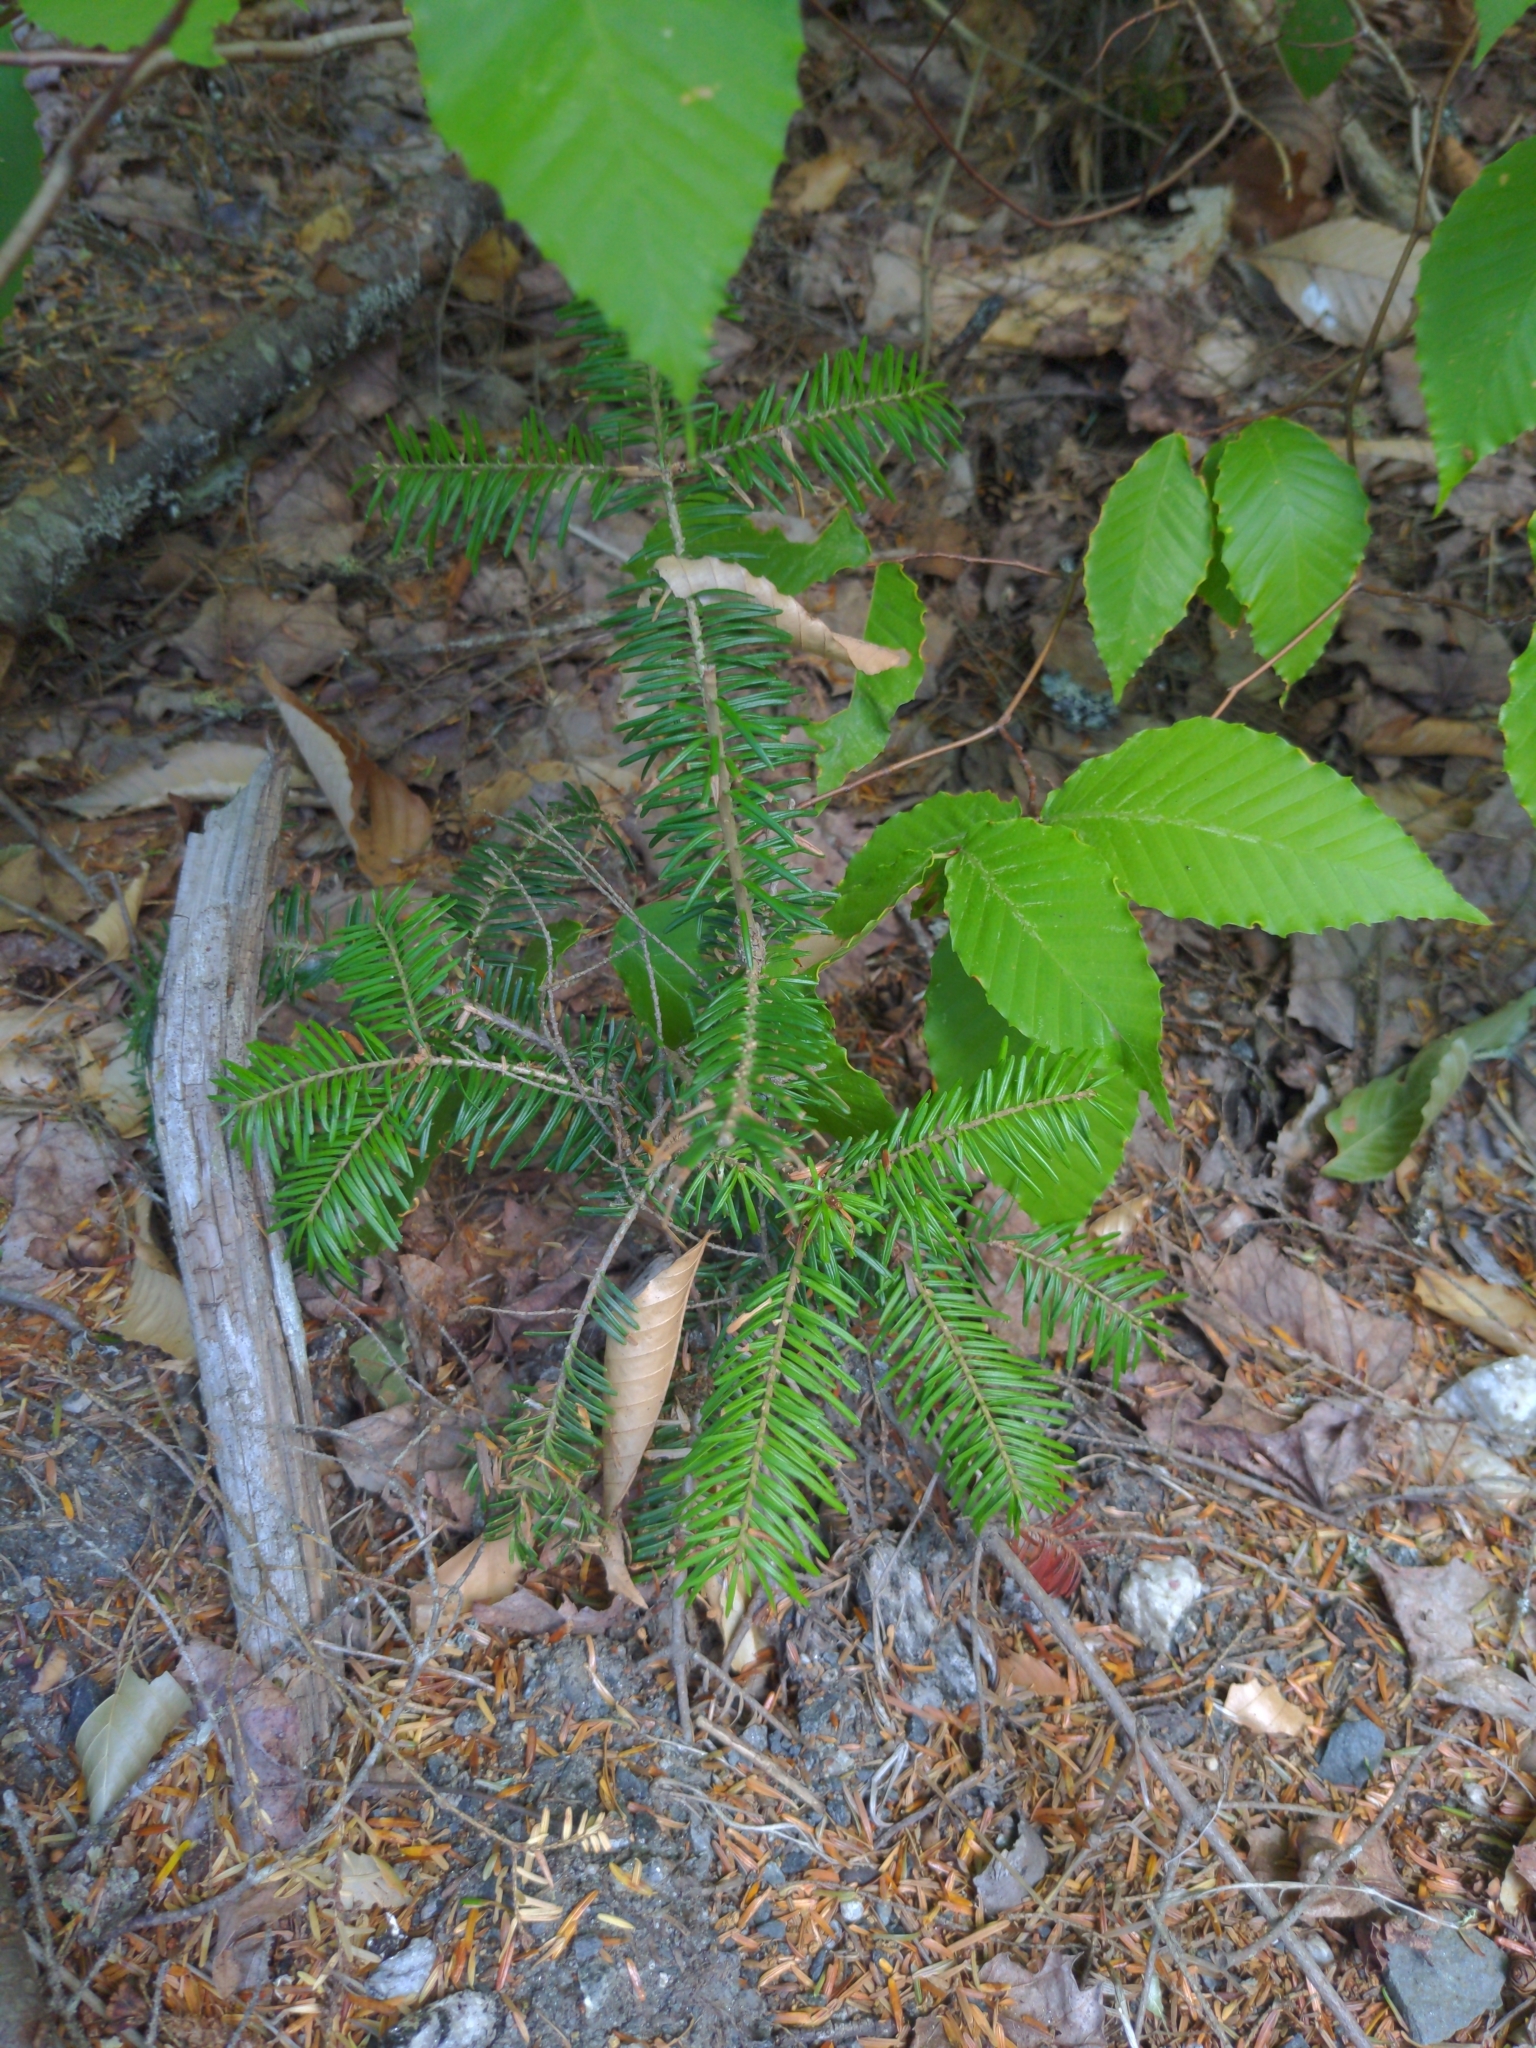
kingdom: Plantae
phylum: Tracheophyta
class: Pinopsida
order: Pinales
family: Pinaceae
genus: Abies
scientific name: Abies balsamea
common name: Balsam fir
